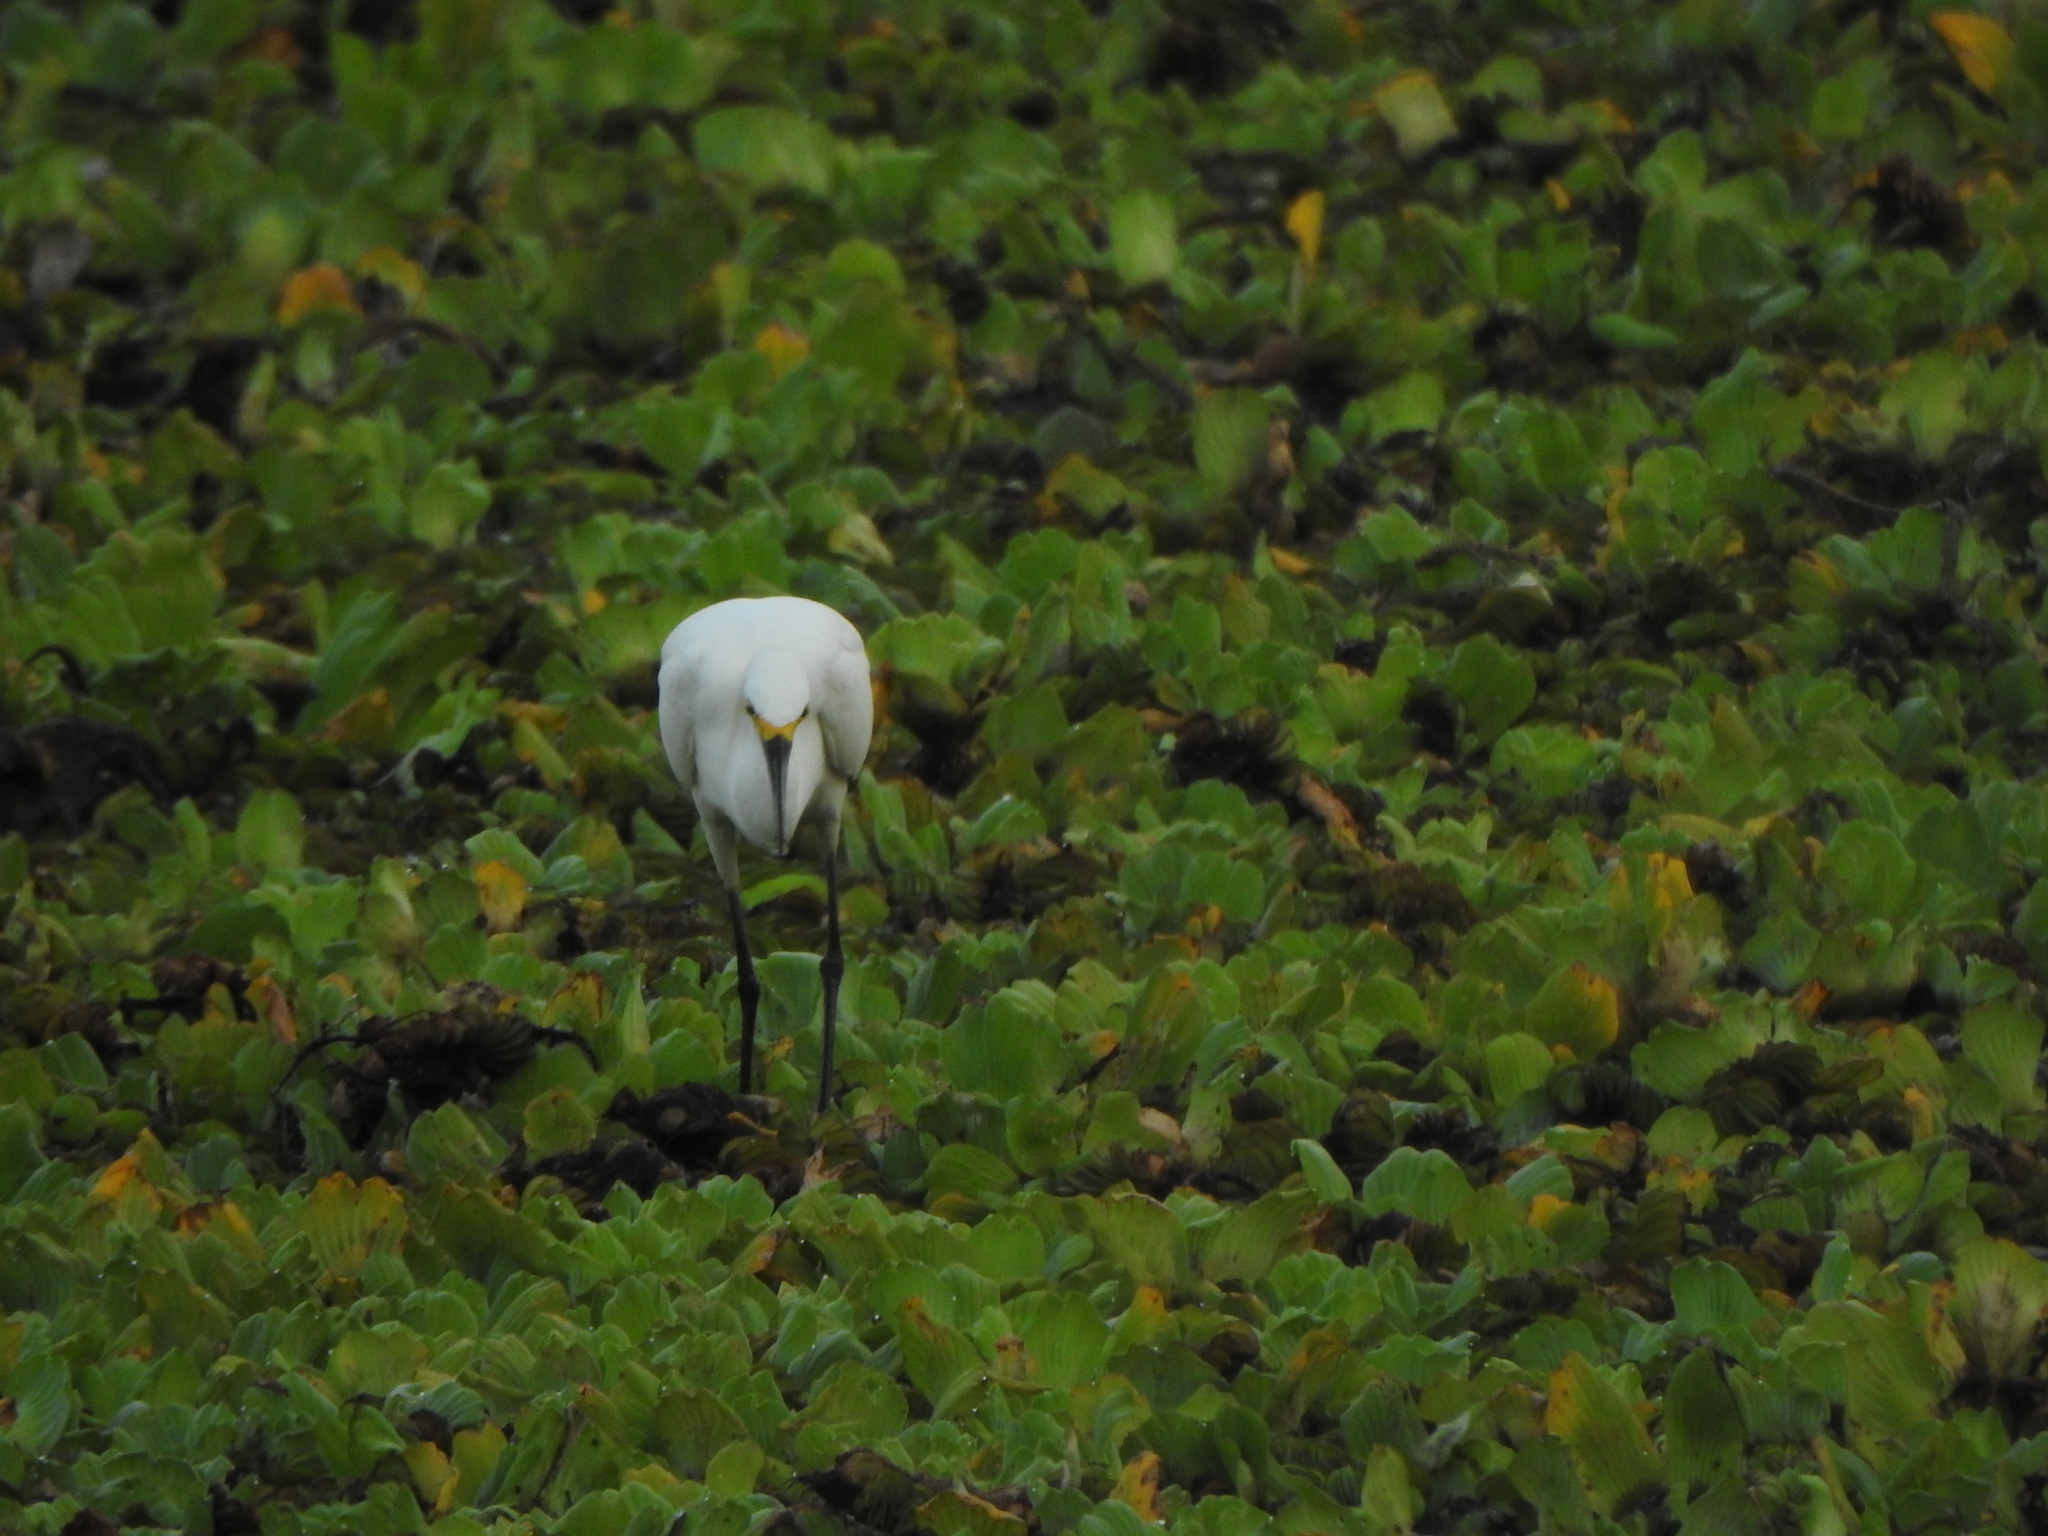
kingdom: Animalia
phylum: Chordata
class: Aves
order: Pelecaniformes
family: Ardeidae
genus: Egretta
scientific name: Egretta thula
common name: Snowy egret
